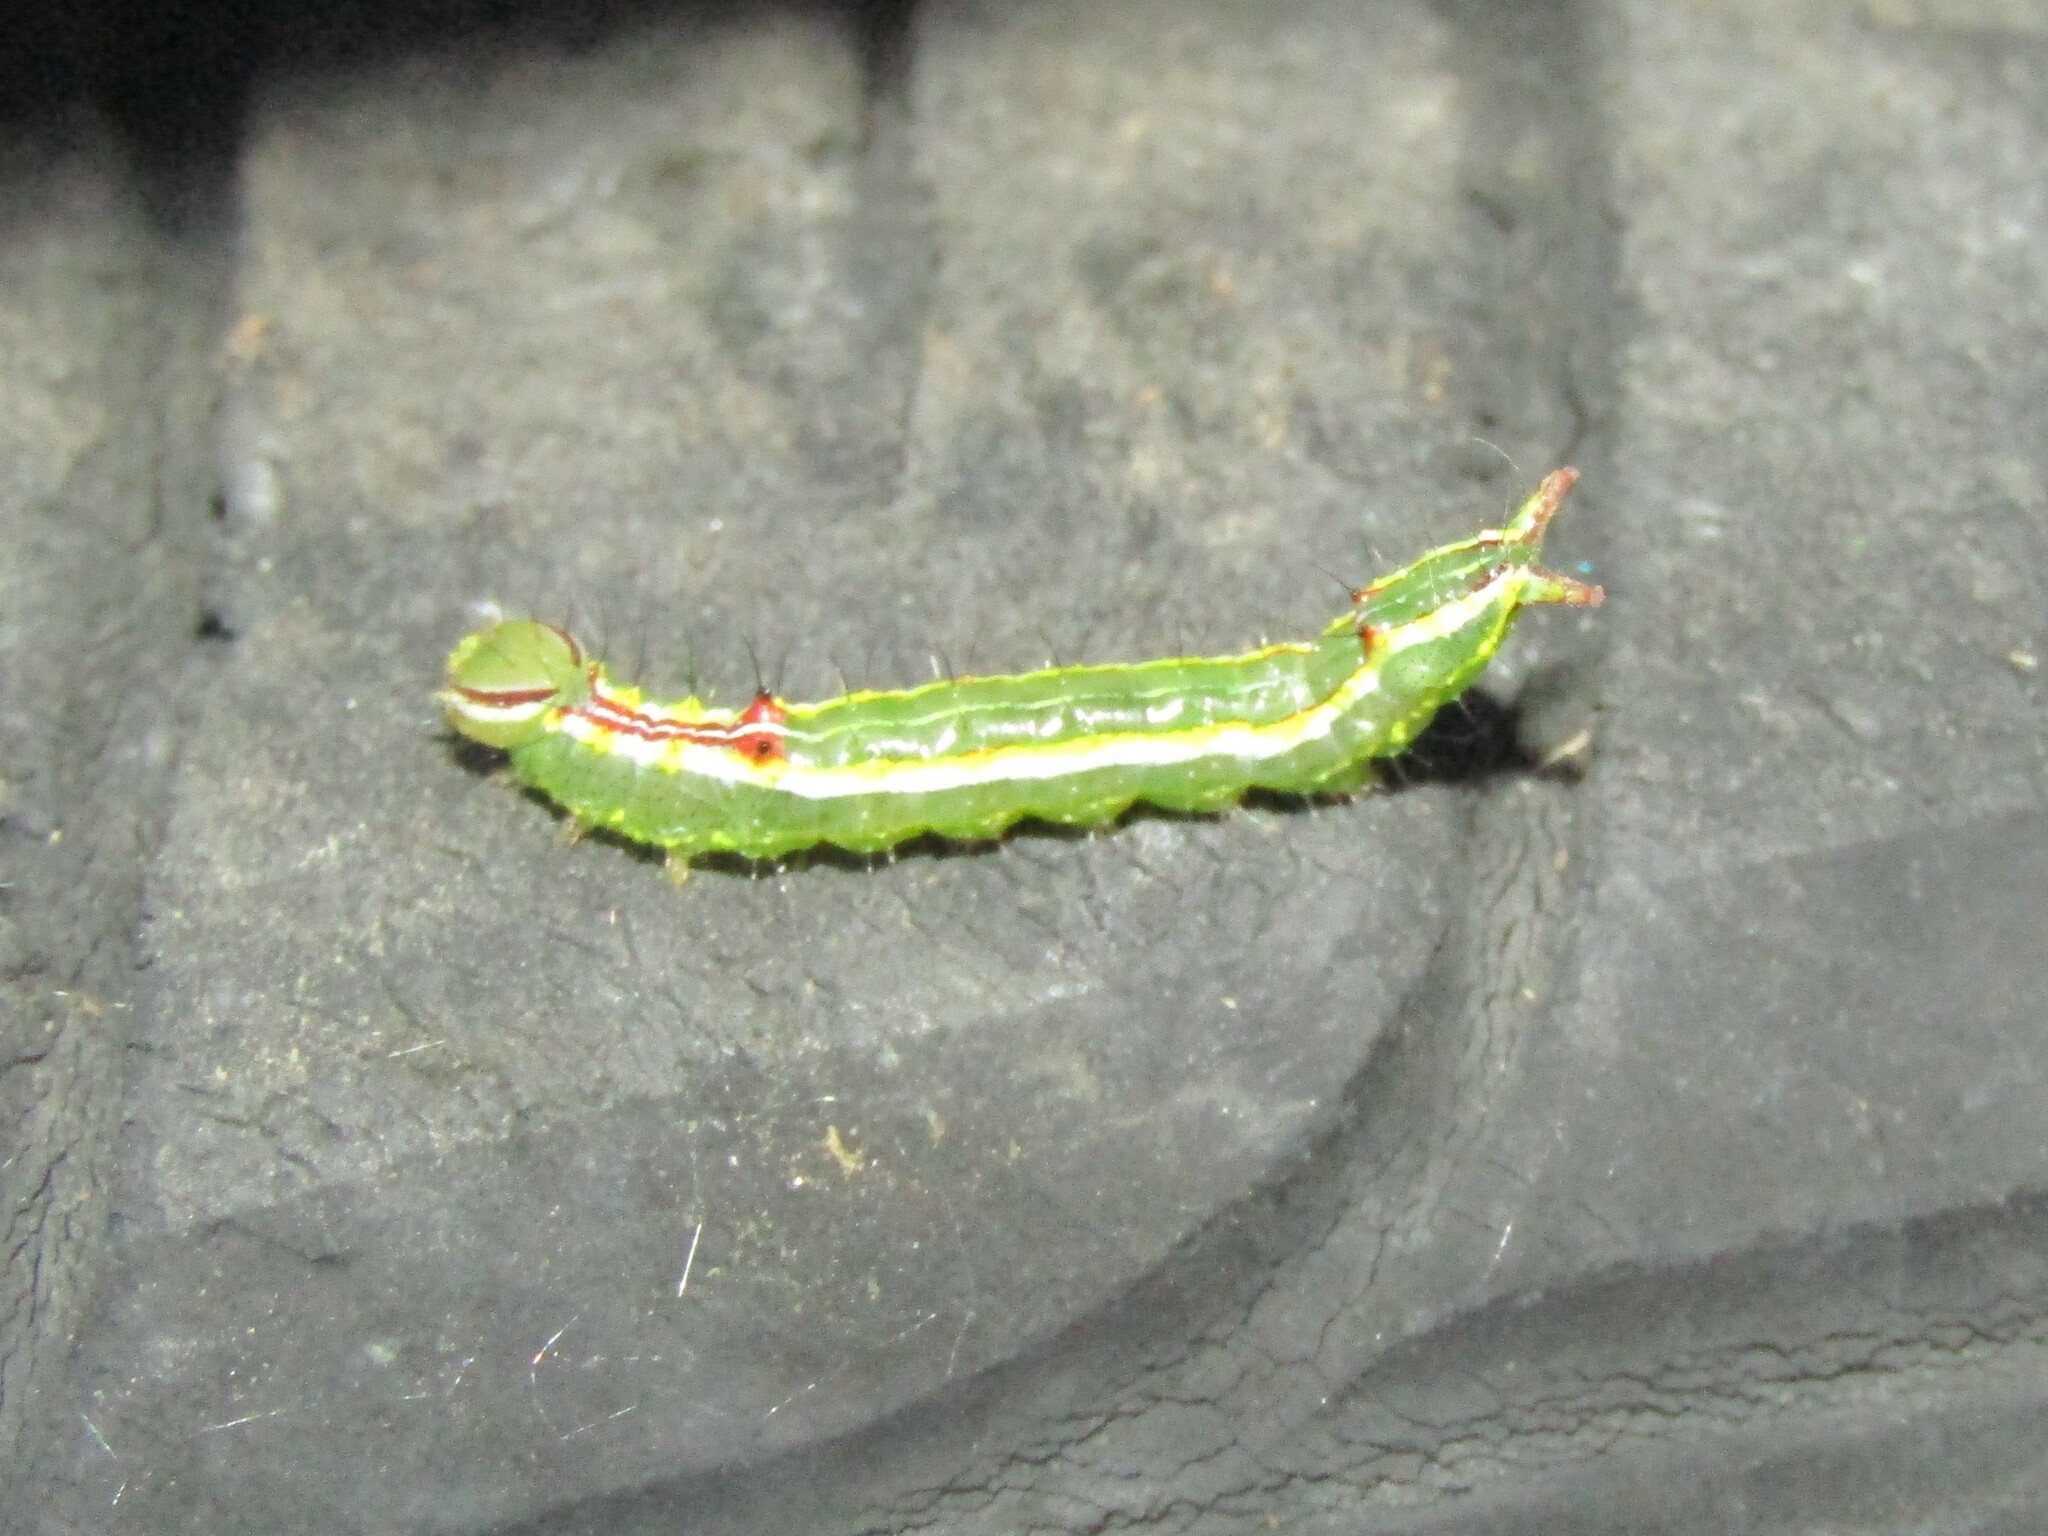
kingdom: Animalia
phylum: Arthropoda
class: Insecta
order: Lepidoptera
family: Notodontidae
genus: Lochmaeus
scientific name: Lochmaeus manteo
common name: Variable oakleaf caterpillar moth
